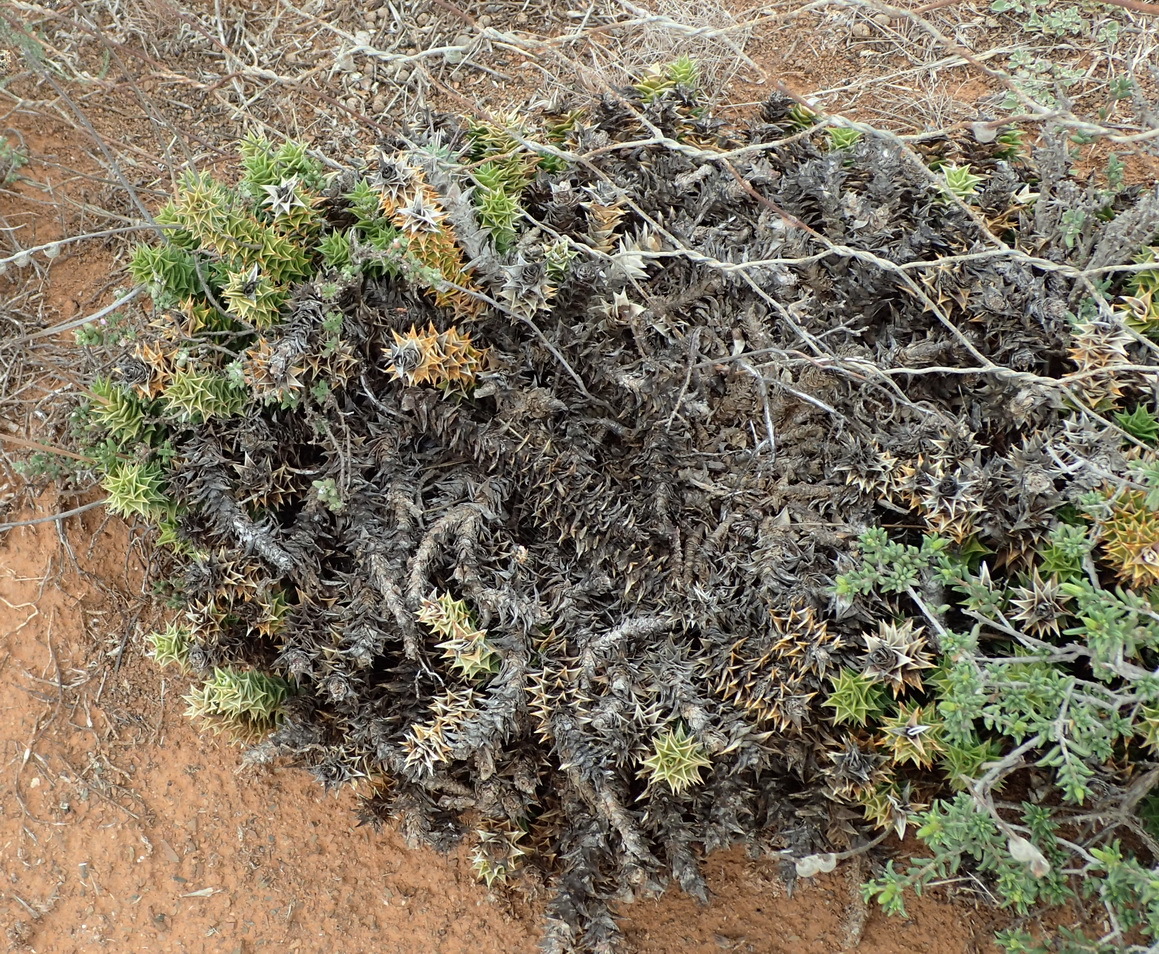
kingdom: Plantae
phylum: Tracheophyta
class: Liliopsida
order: Asparagales
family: Asphodelaceae
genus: Astroloba
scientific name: Astroloba foliolosa
